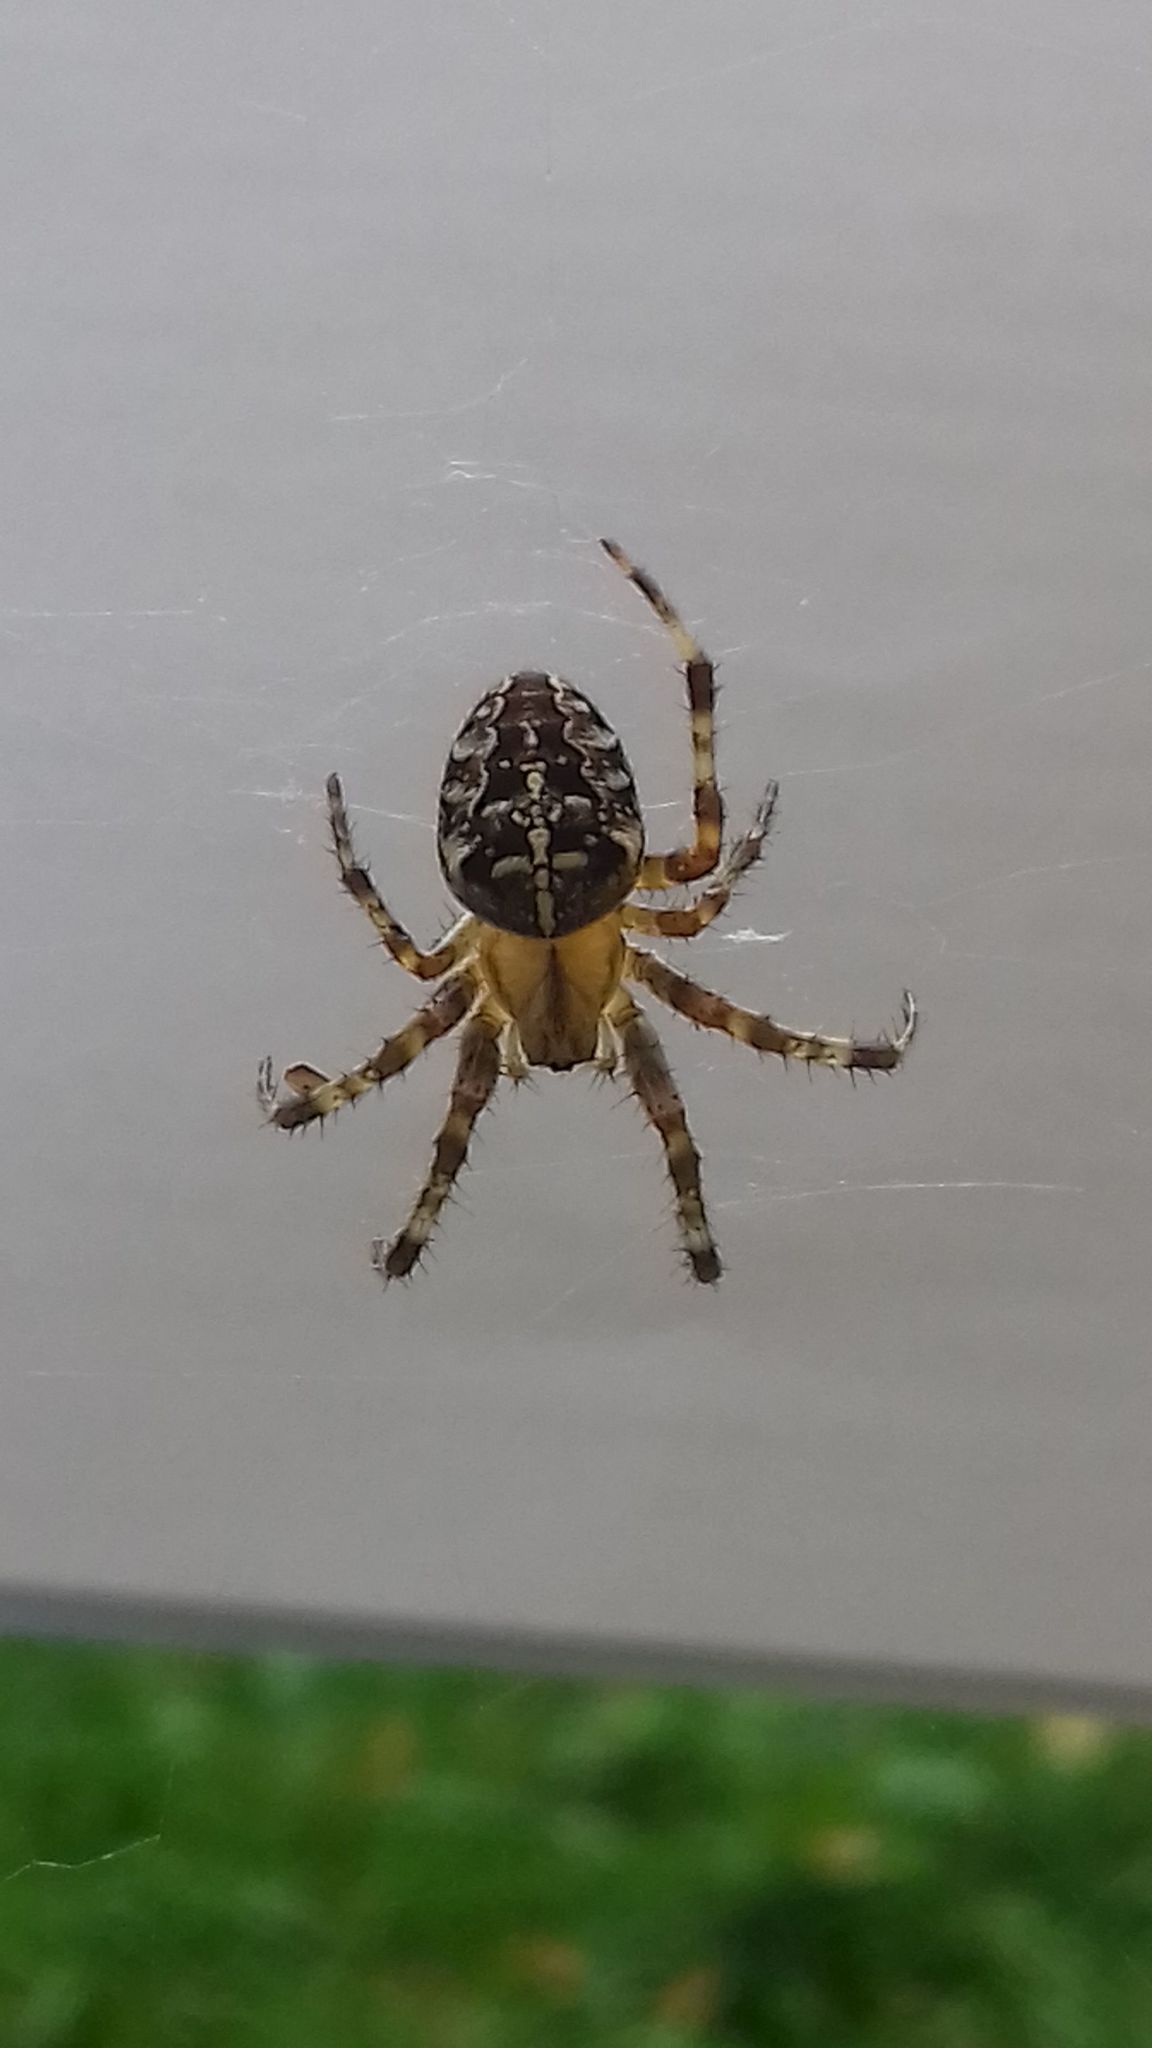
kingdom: Animalia
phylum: Arthropoda
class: Arachnida
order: Araneae
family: Araneidae
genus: Araneus
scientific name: Araneus diadematus
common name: Cross orbweaver
